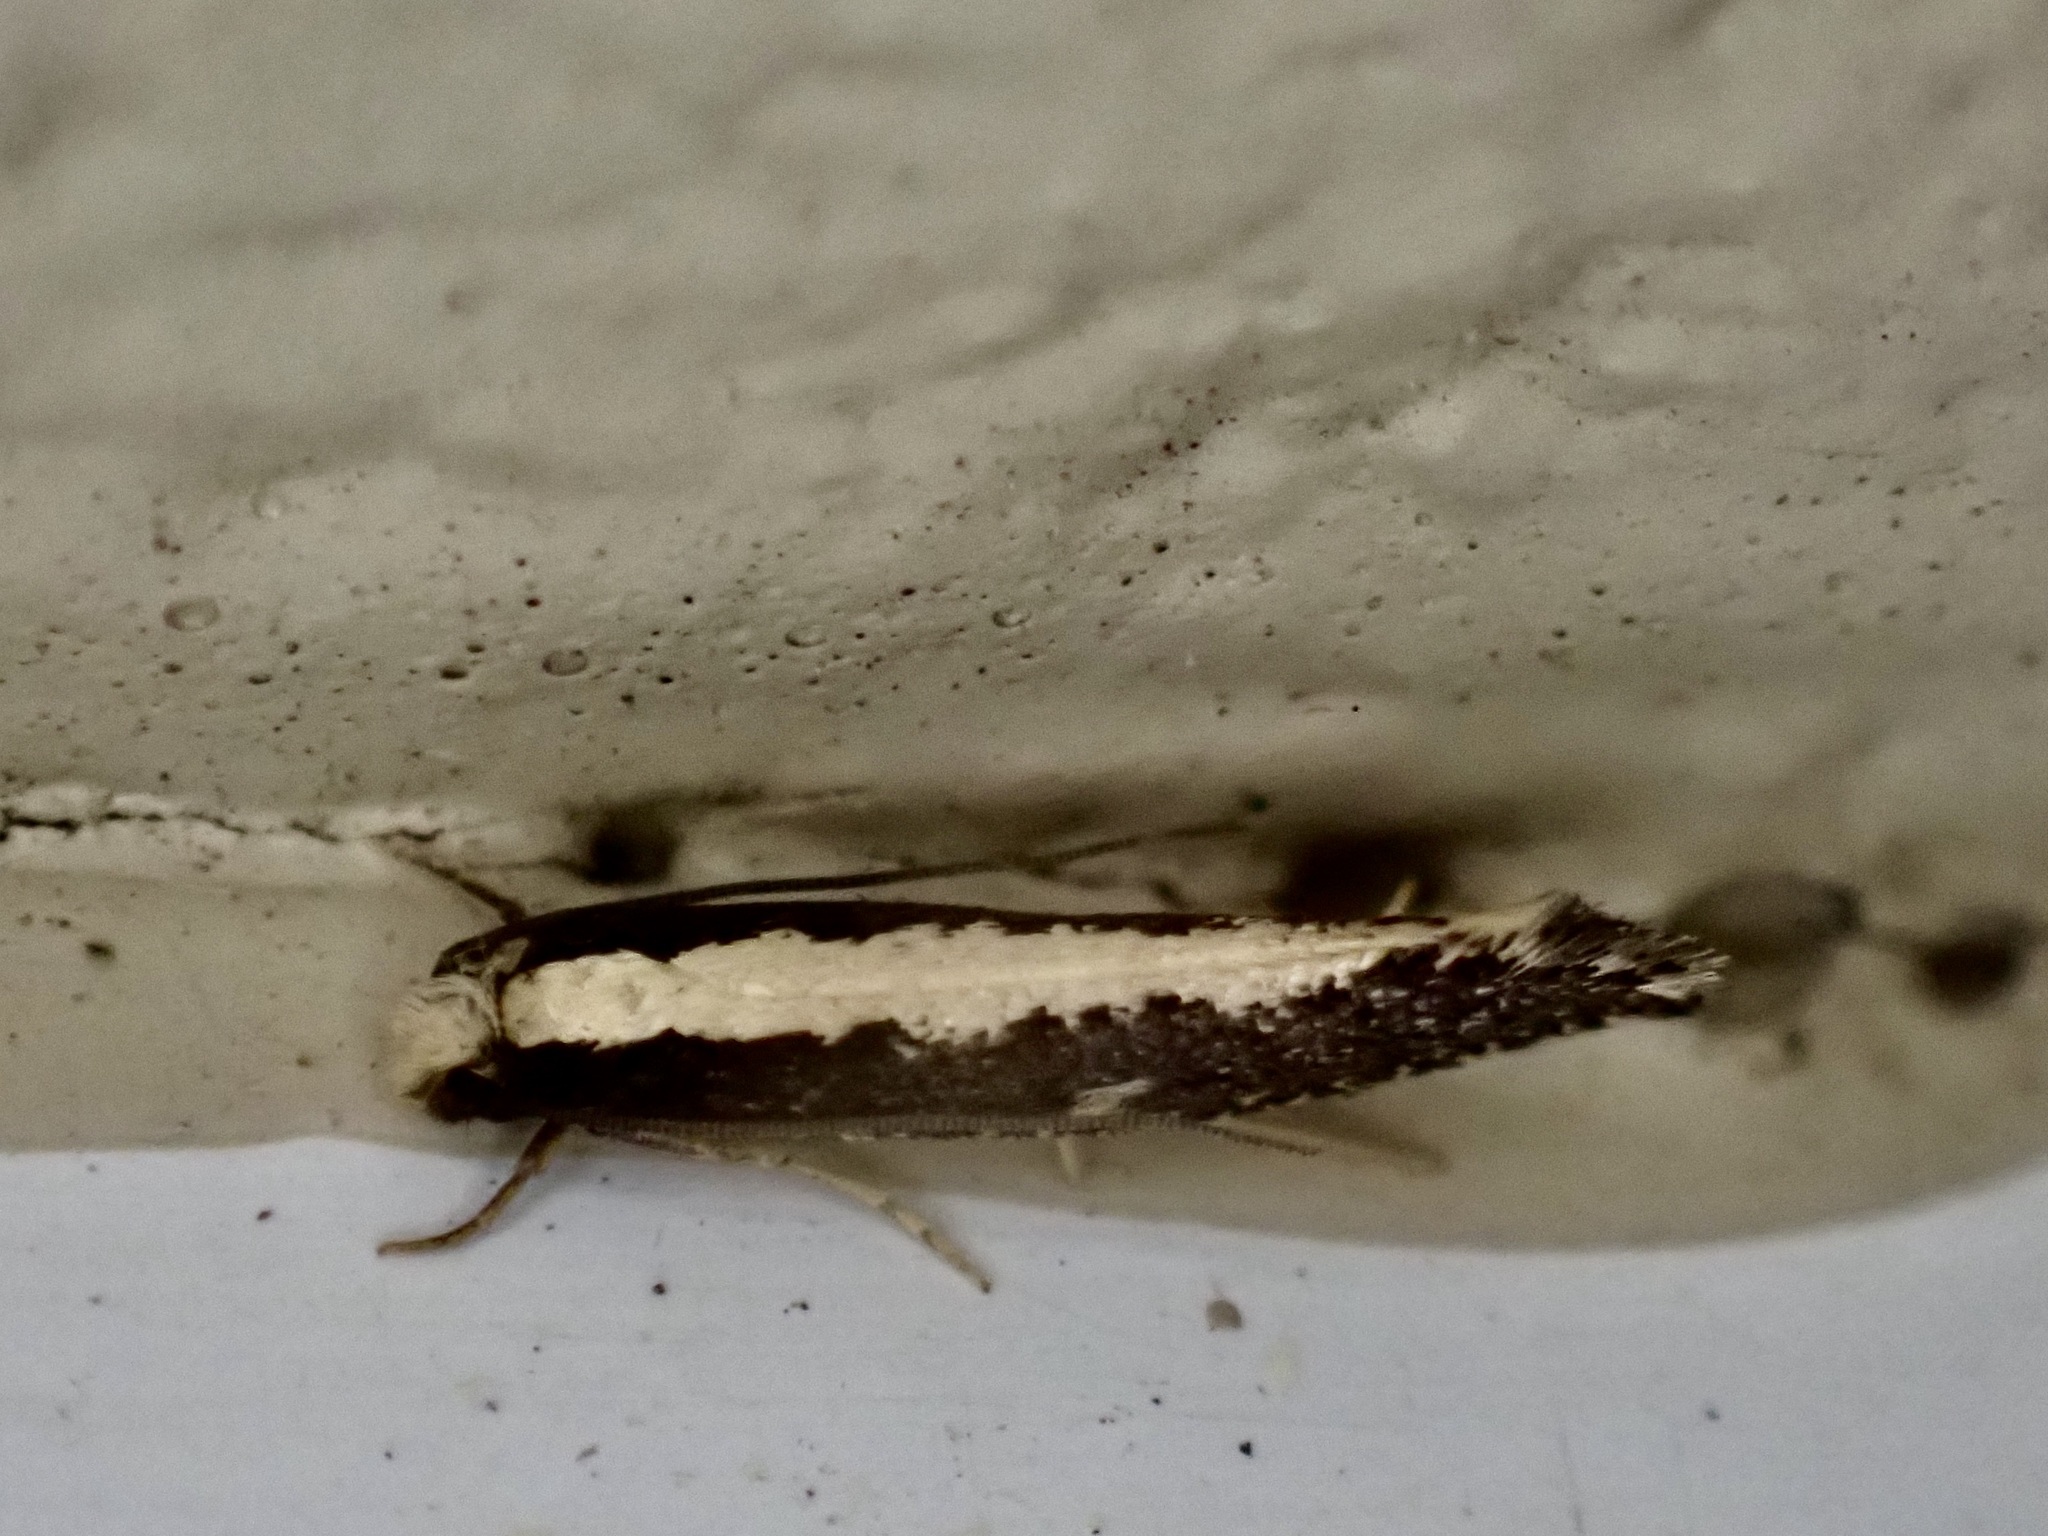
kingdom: Animalia
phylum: Arthropoda
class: Insecta
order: Lepidoptera
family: Tineidae
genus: Monopis
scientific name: Monopis ethelella
